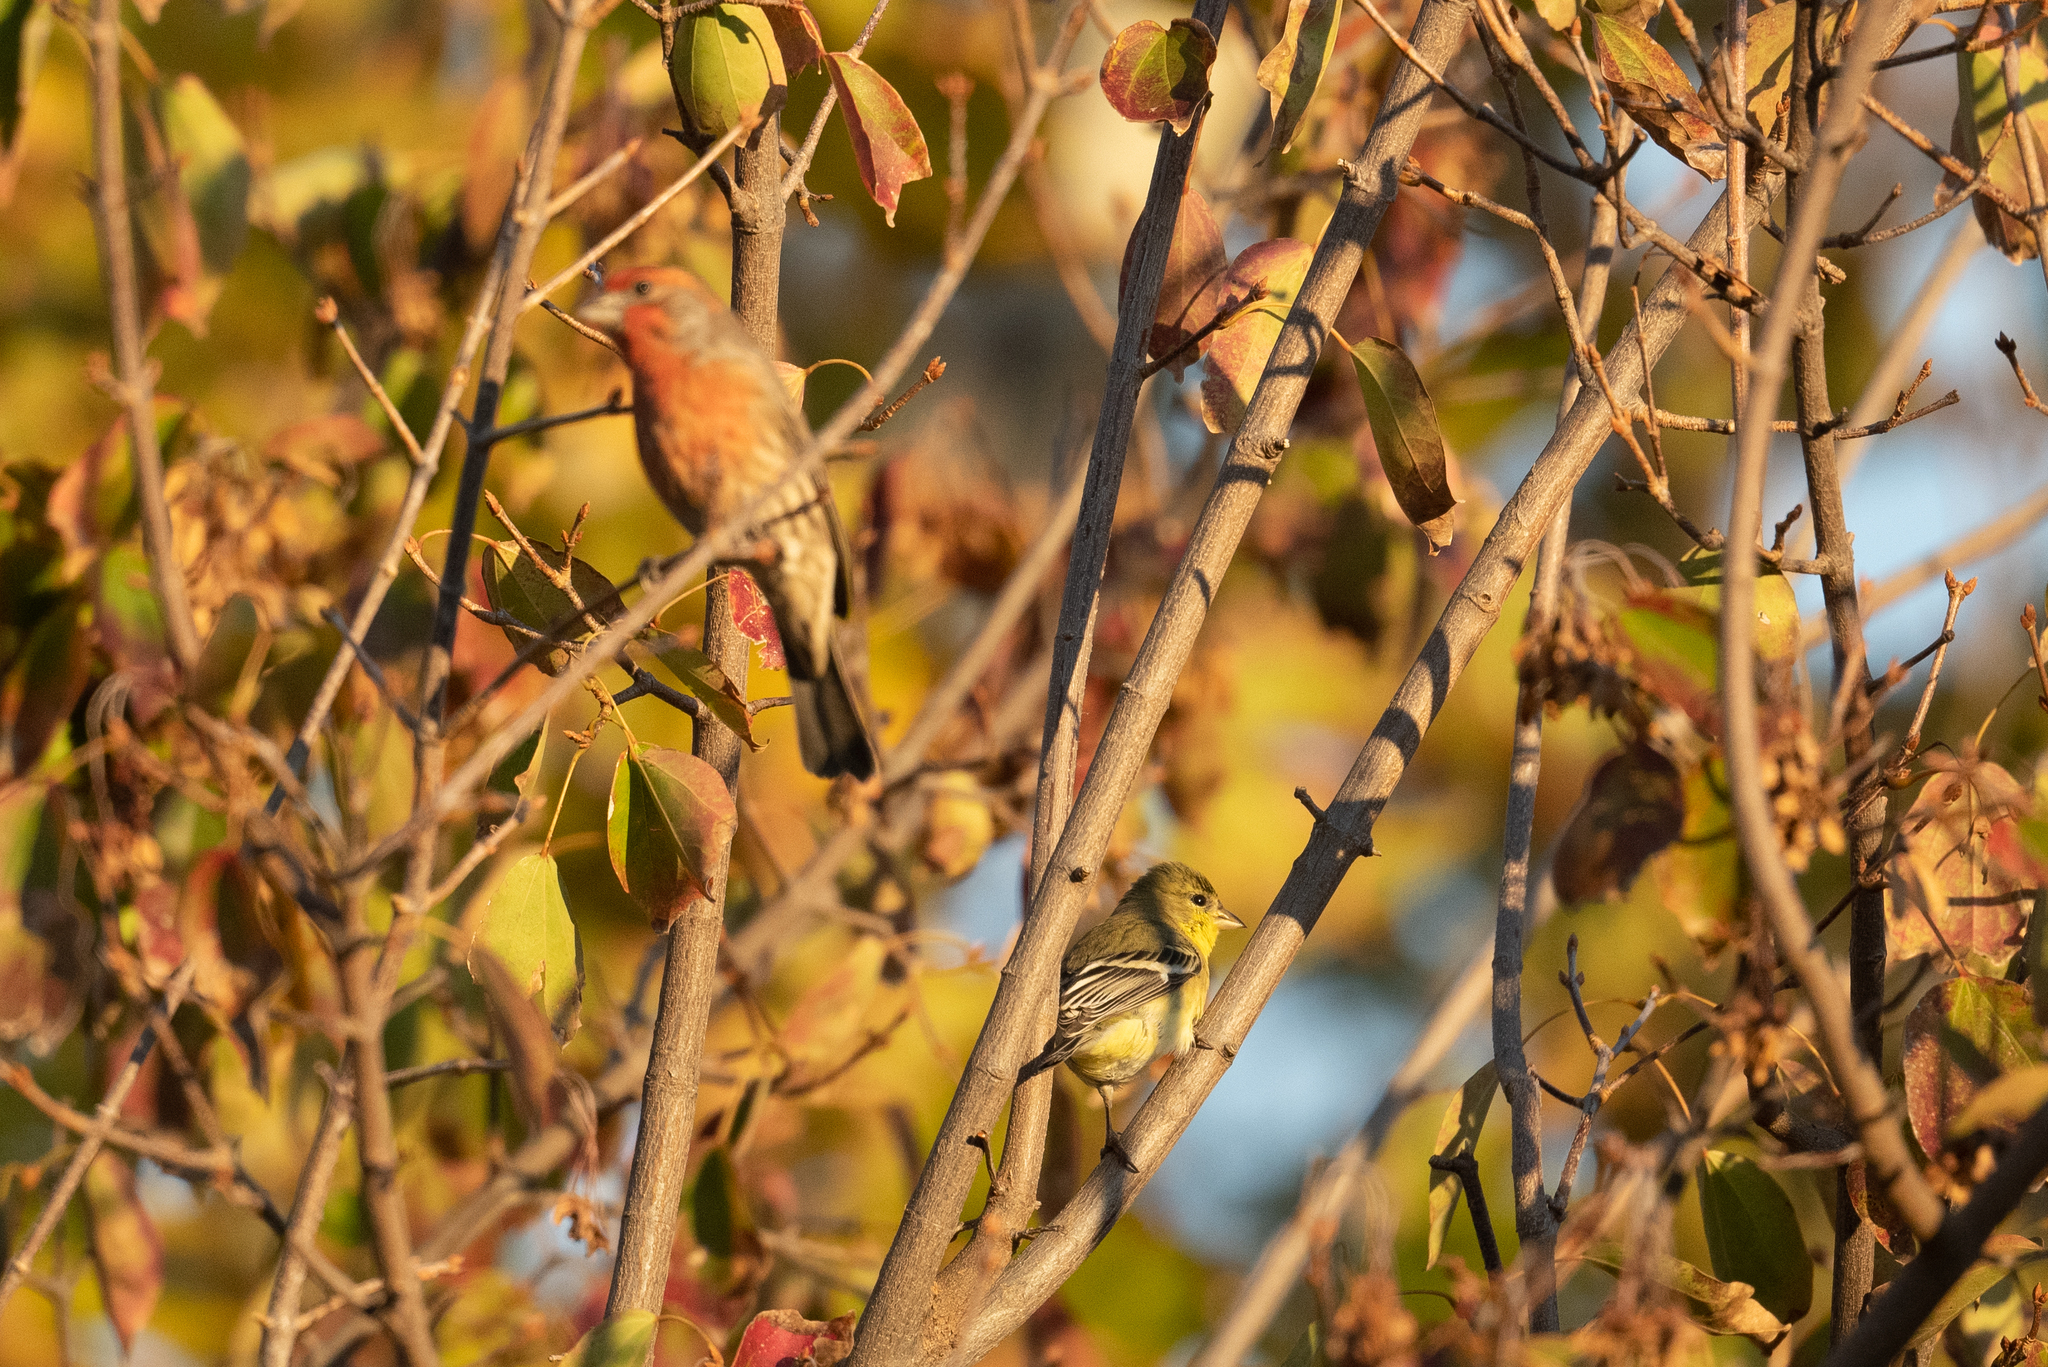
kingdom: Animalia
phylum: Chordata
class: Aves
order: Passeriformes
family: Fringillidae
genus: Spinus
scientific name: Spinus psaltria
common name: Lesser goldfinch
